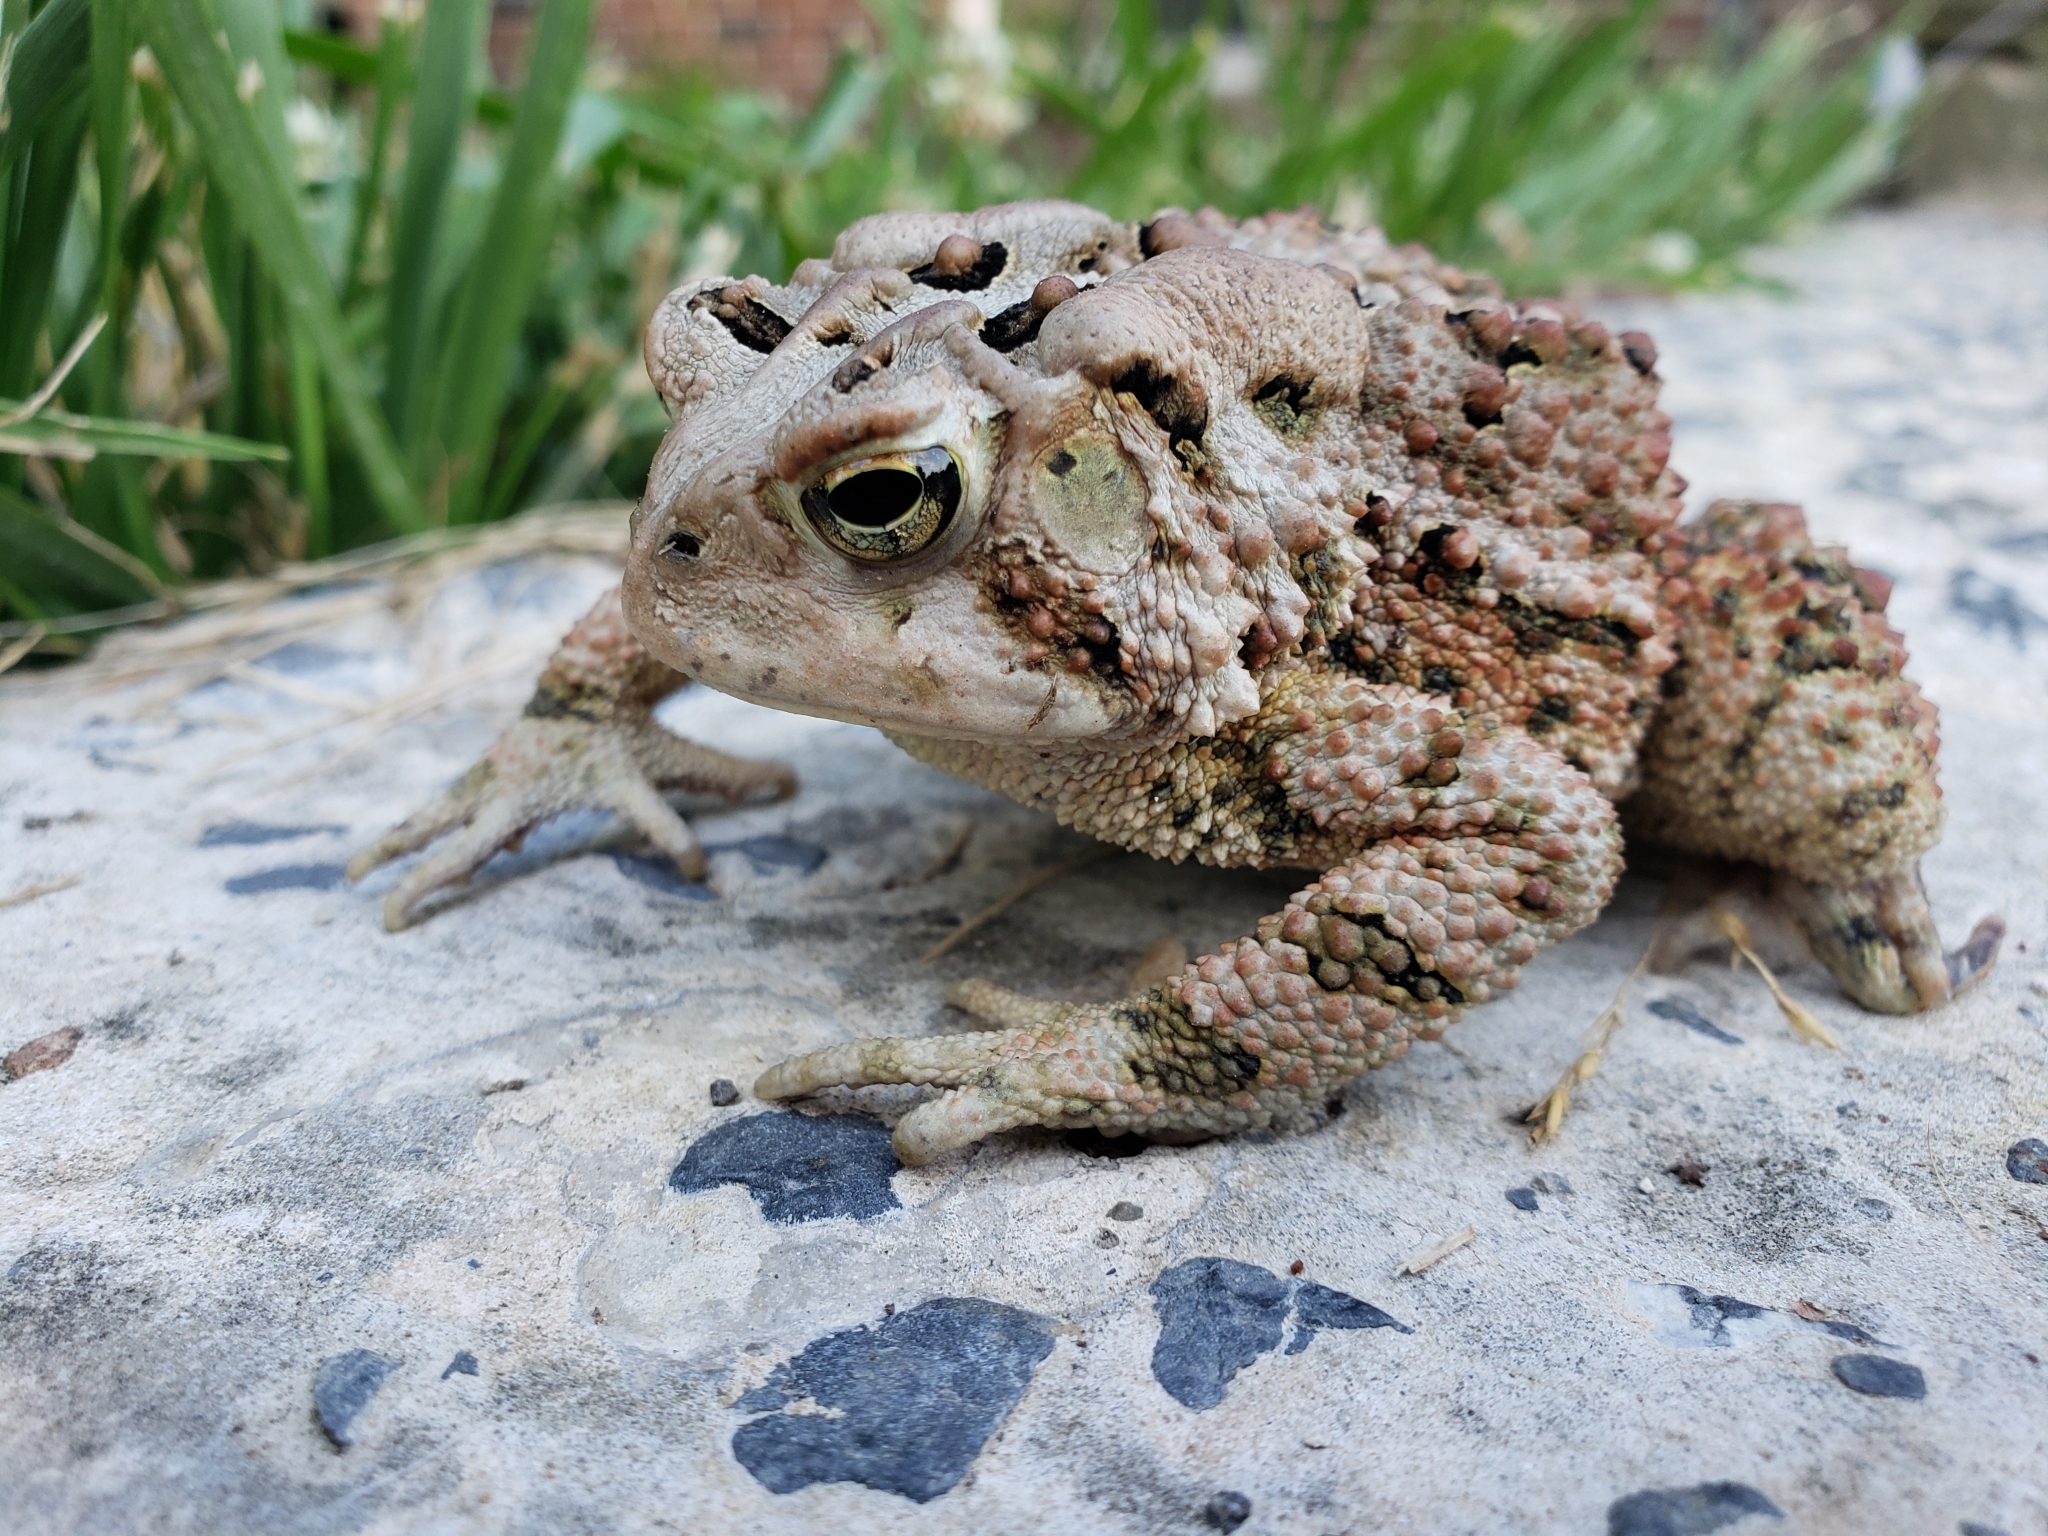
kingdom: Animalia
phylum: Chordata
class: Amphibia
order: Anura
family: Bufonidae
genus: Anaxyrus
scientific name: Anaxyrus americanus
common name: American toad
